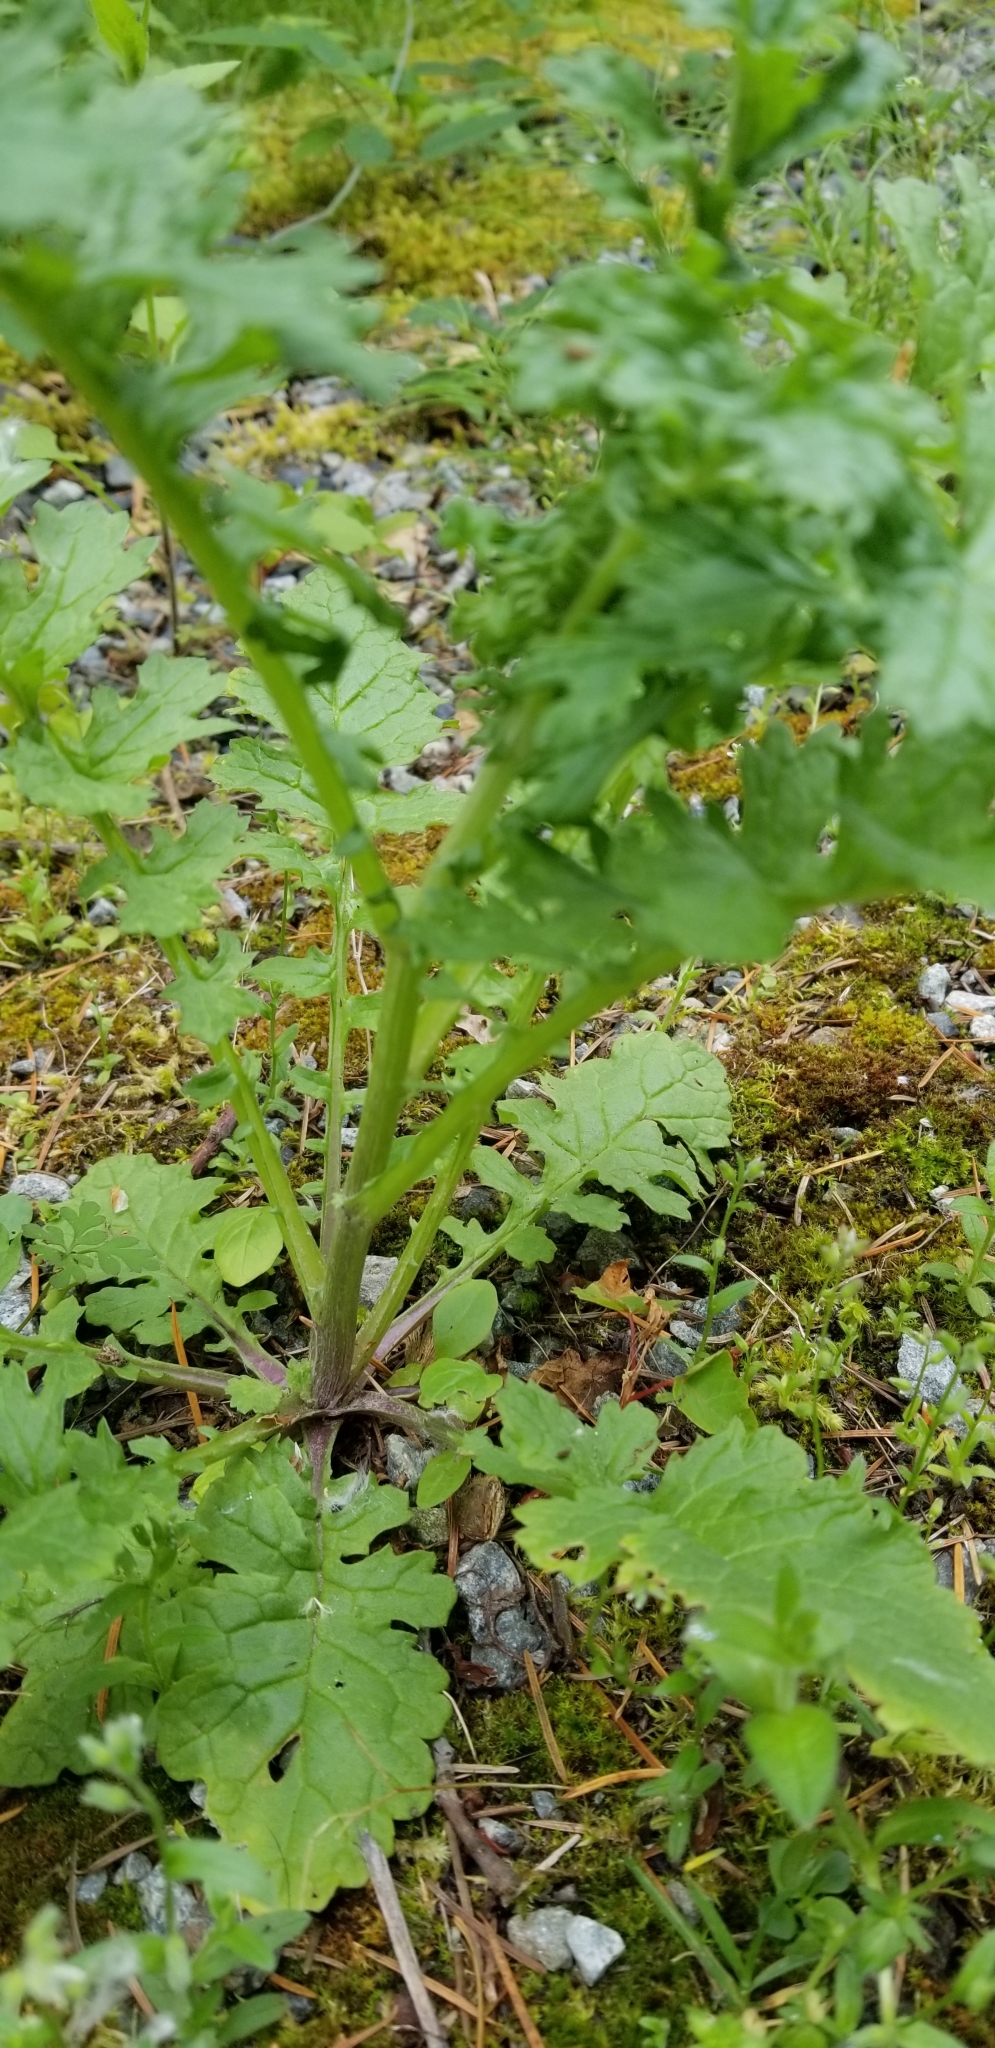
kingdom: Plantae
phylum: Tracheophyta
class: Magnoliopsida
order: Asterales
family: Asteraceae
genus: Jacobaea
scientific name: Jacobaea vulgaris
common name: Stinking willie
